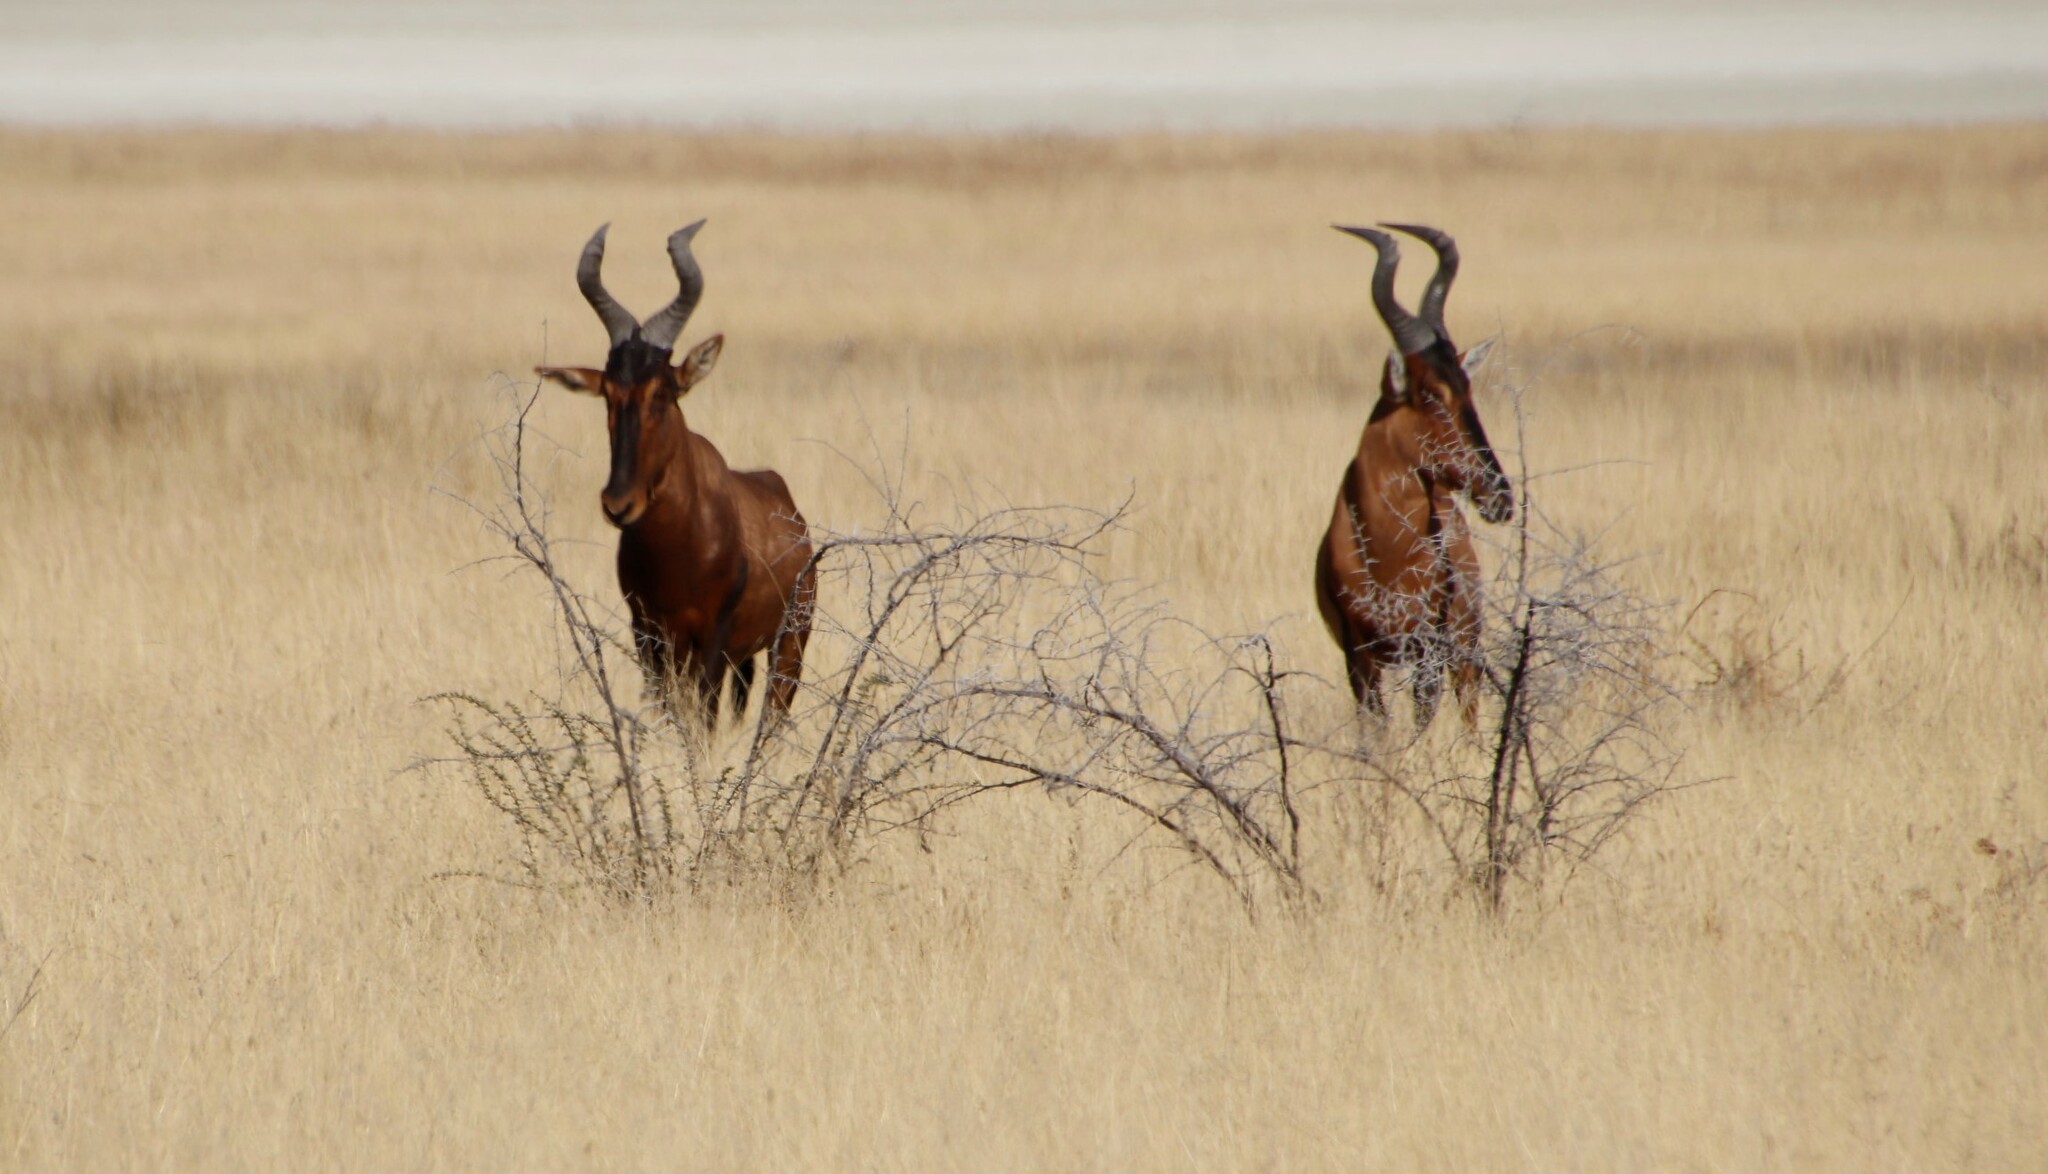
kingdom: Animalia
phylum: Chordata
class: Mammalia
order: Artiodactyla
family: Bovidae
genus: Alcelaphus
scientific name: Alcelaphus caama
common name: Red hartebeest
